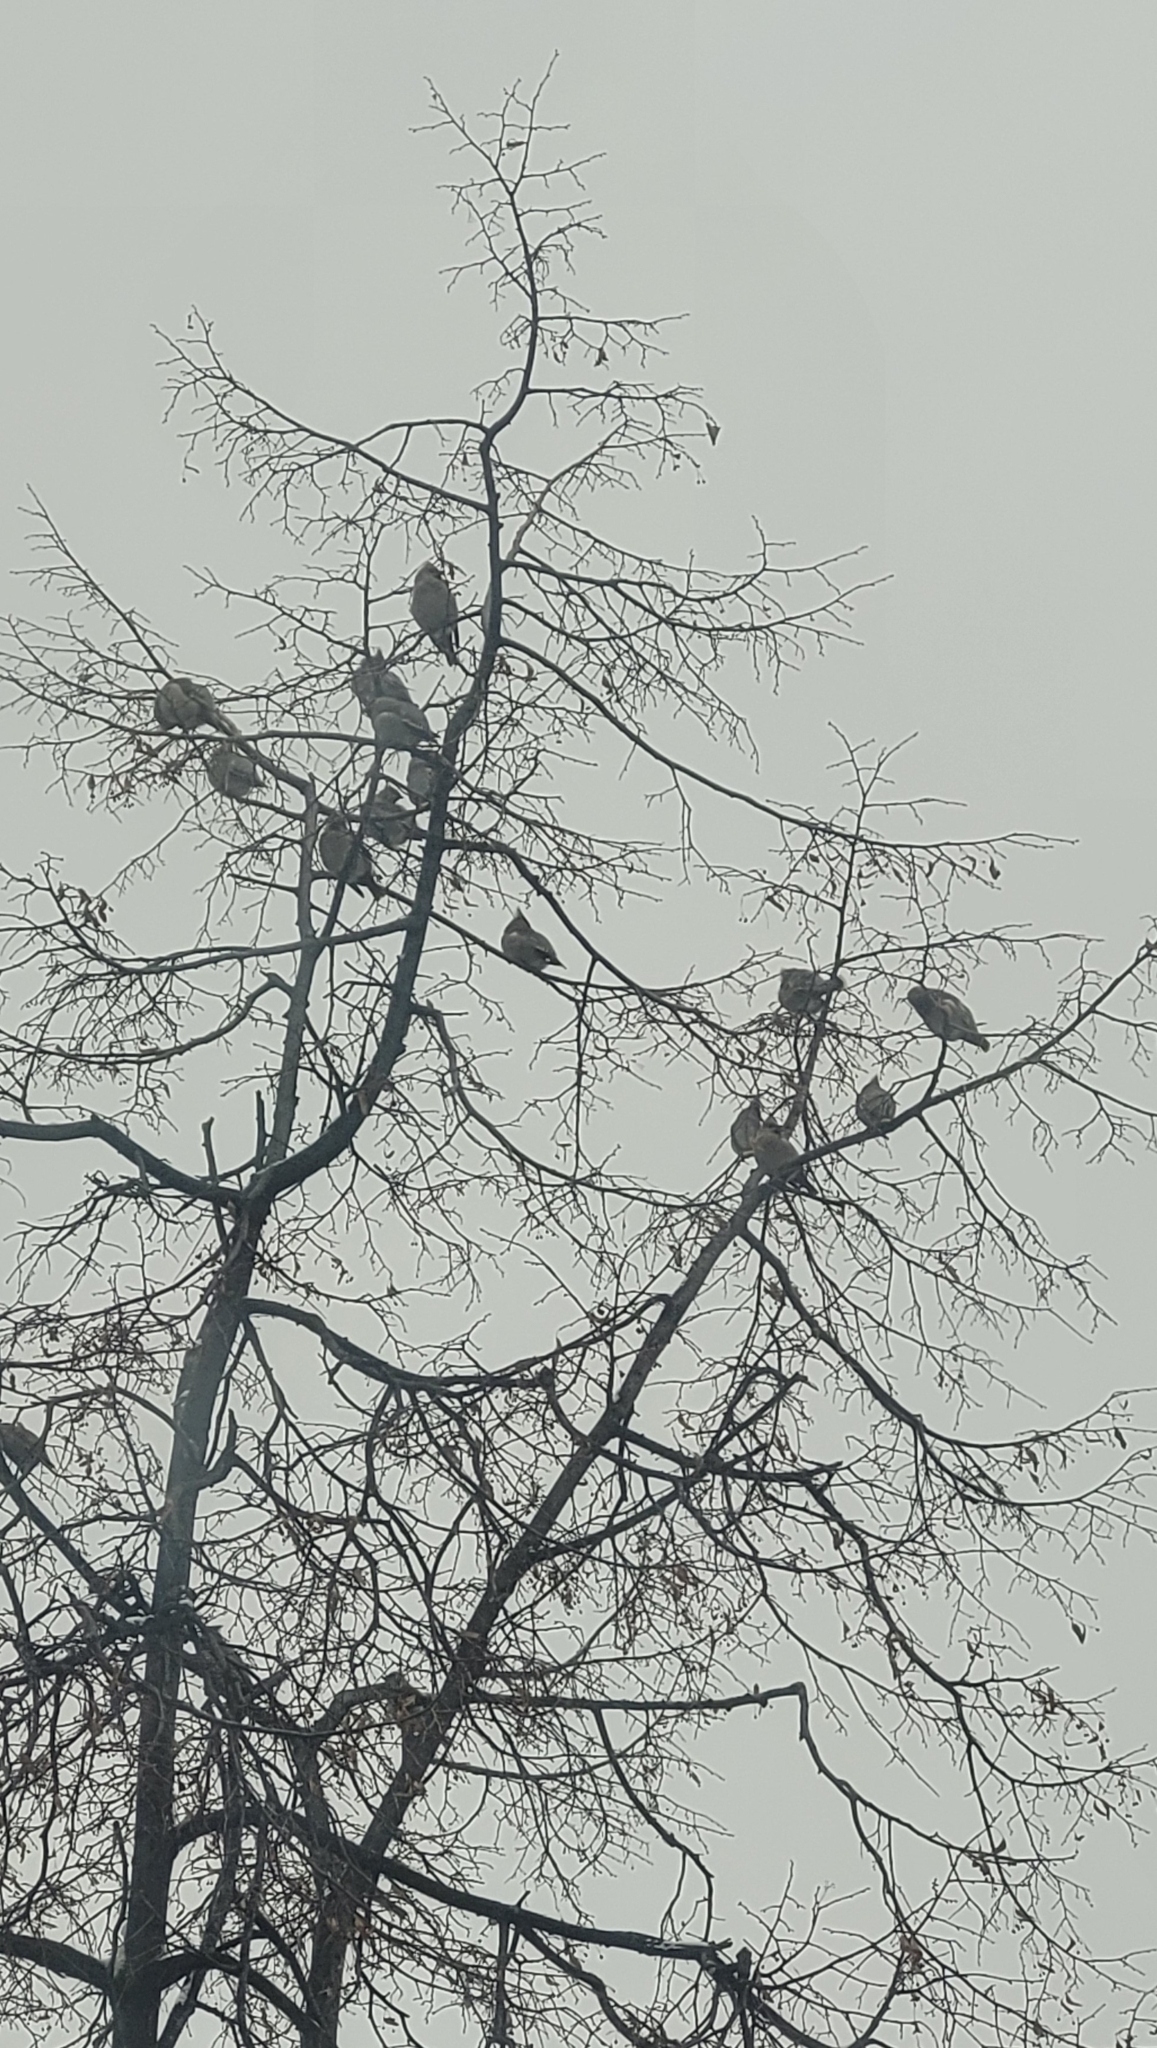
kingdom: Animalia
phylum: Chordata
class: Aves
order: Passeriformes
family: Bombycillidae
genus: Bombycilla
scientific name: Bombycilla garrulus
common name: Bohemian waxwing
